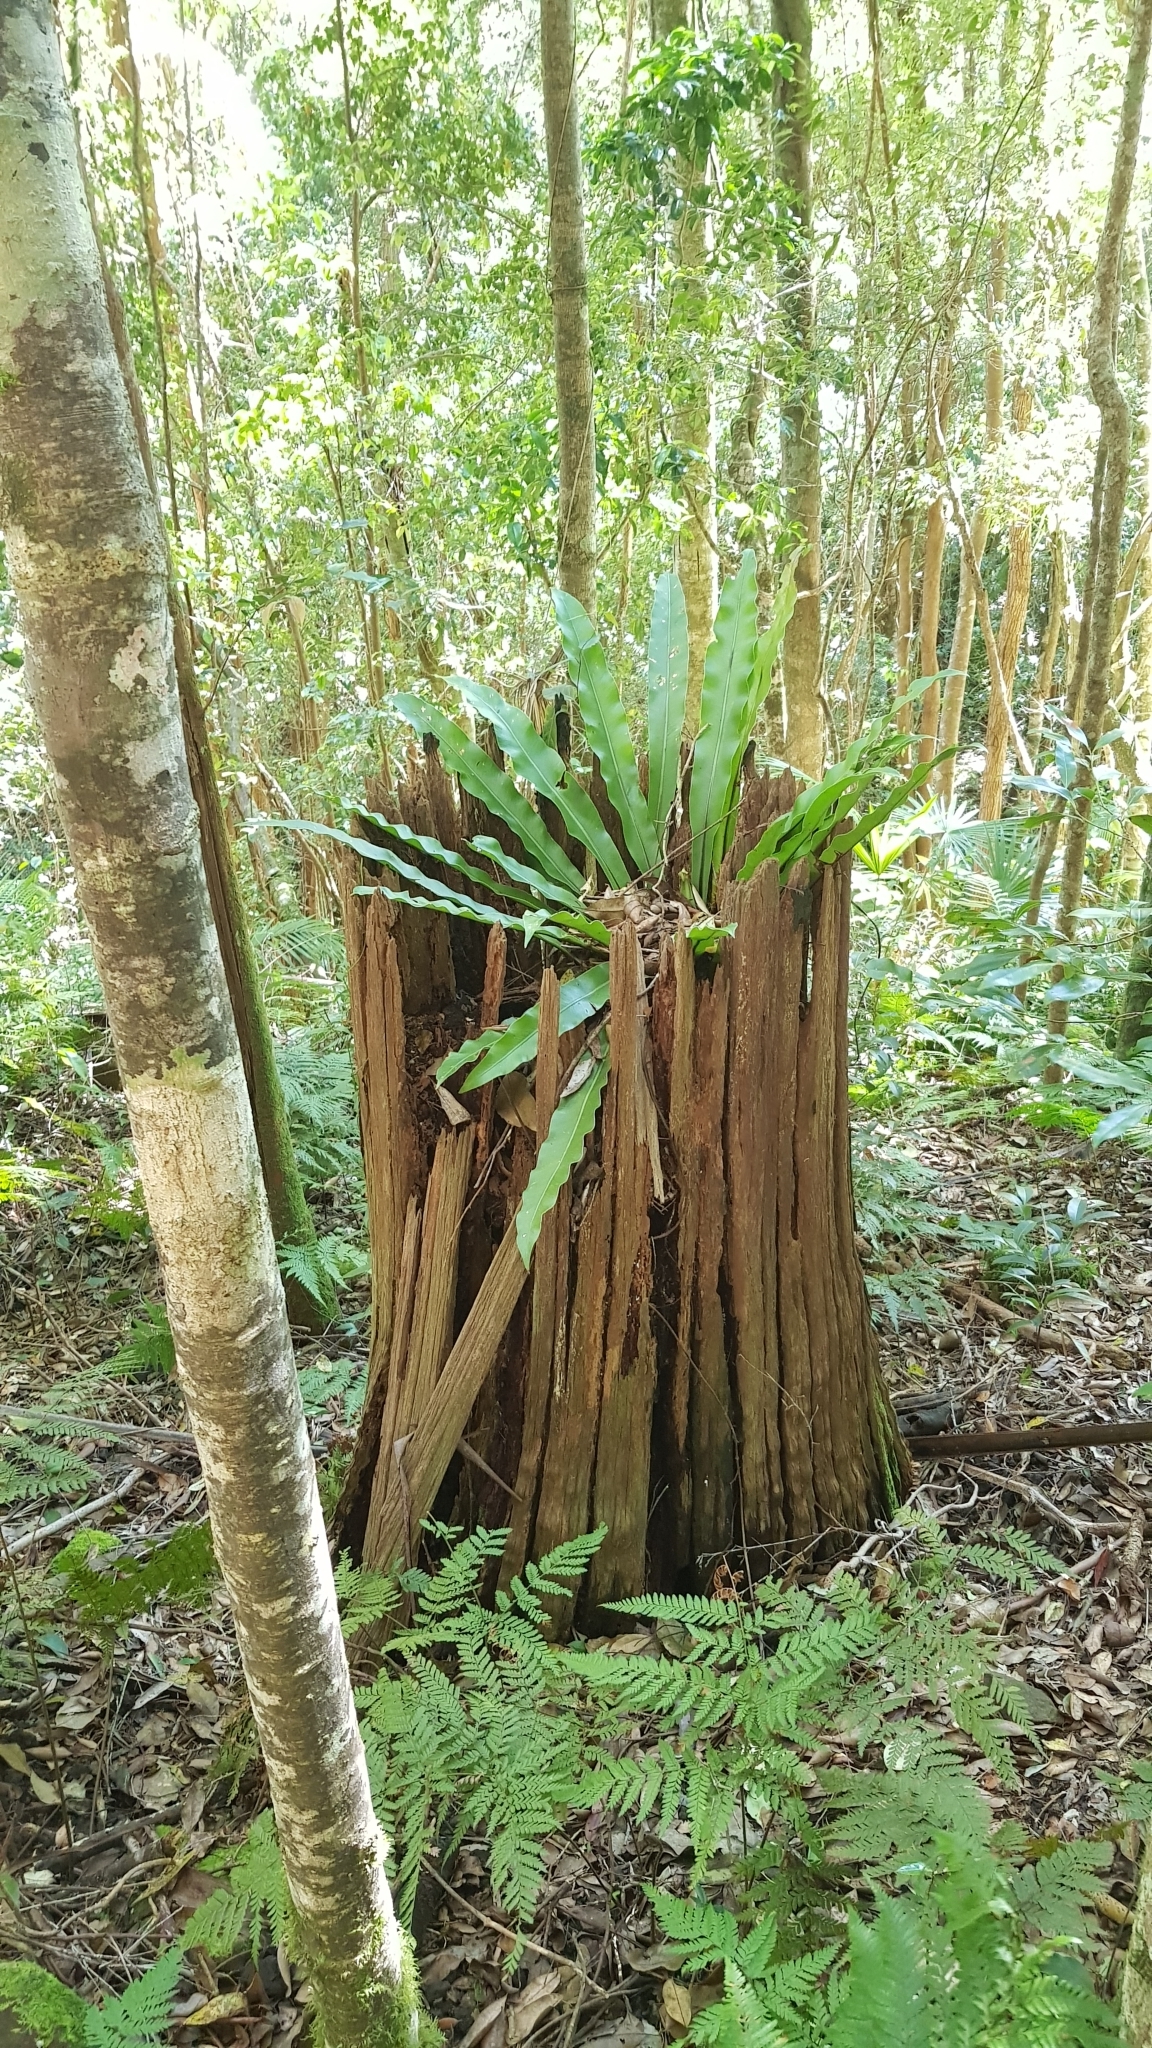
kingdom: Plantae
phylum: Tracheophyta
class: Polypodiopsida
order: Polypodiales
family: Aspleniaceae
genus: Asplenium
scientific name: Asplenium australasicum
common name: Bird's-nest fern
